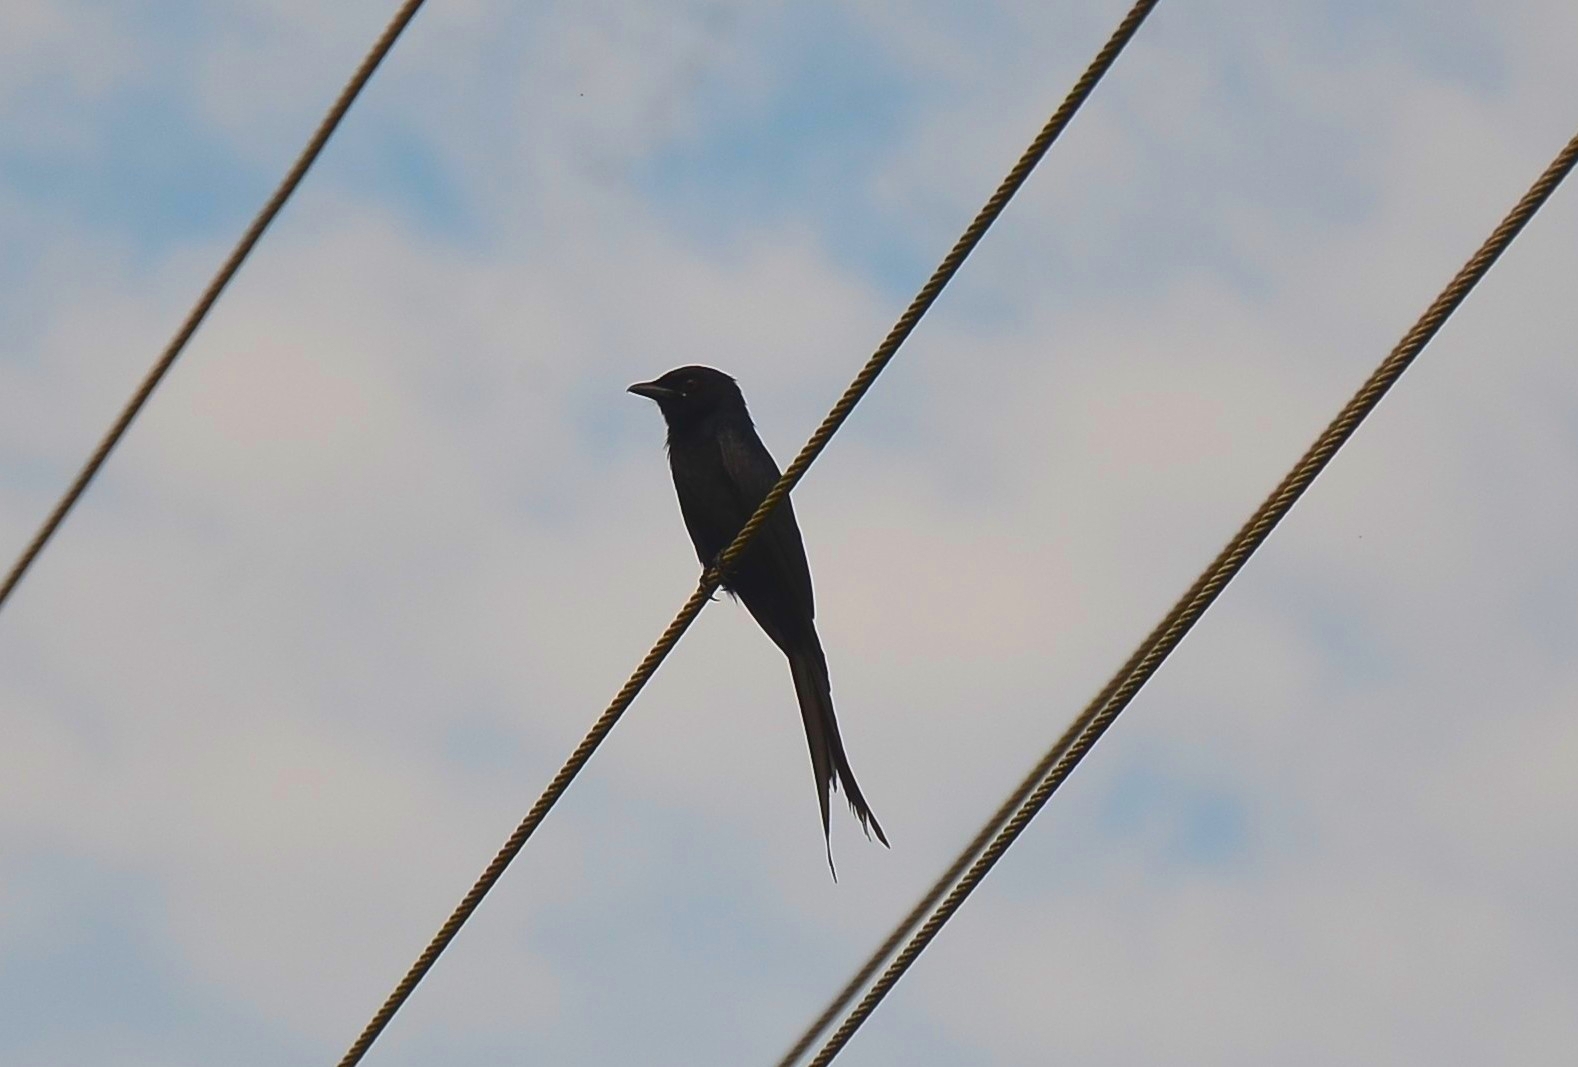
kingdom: Animalia
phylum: Chordata
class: Aves
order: Passeriformes
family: Dicruridae
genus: Dicrurus
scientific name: Dicrurus macrocercus
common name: Black drongo
